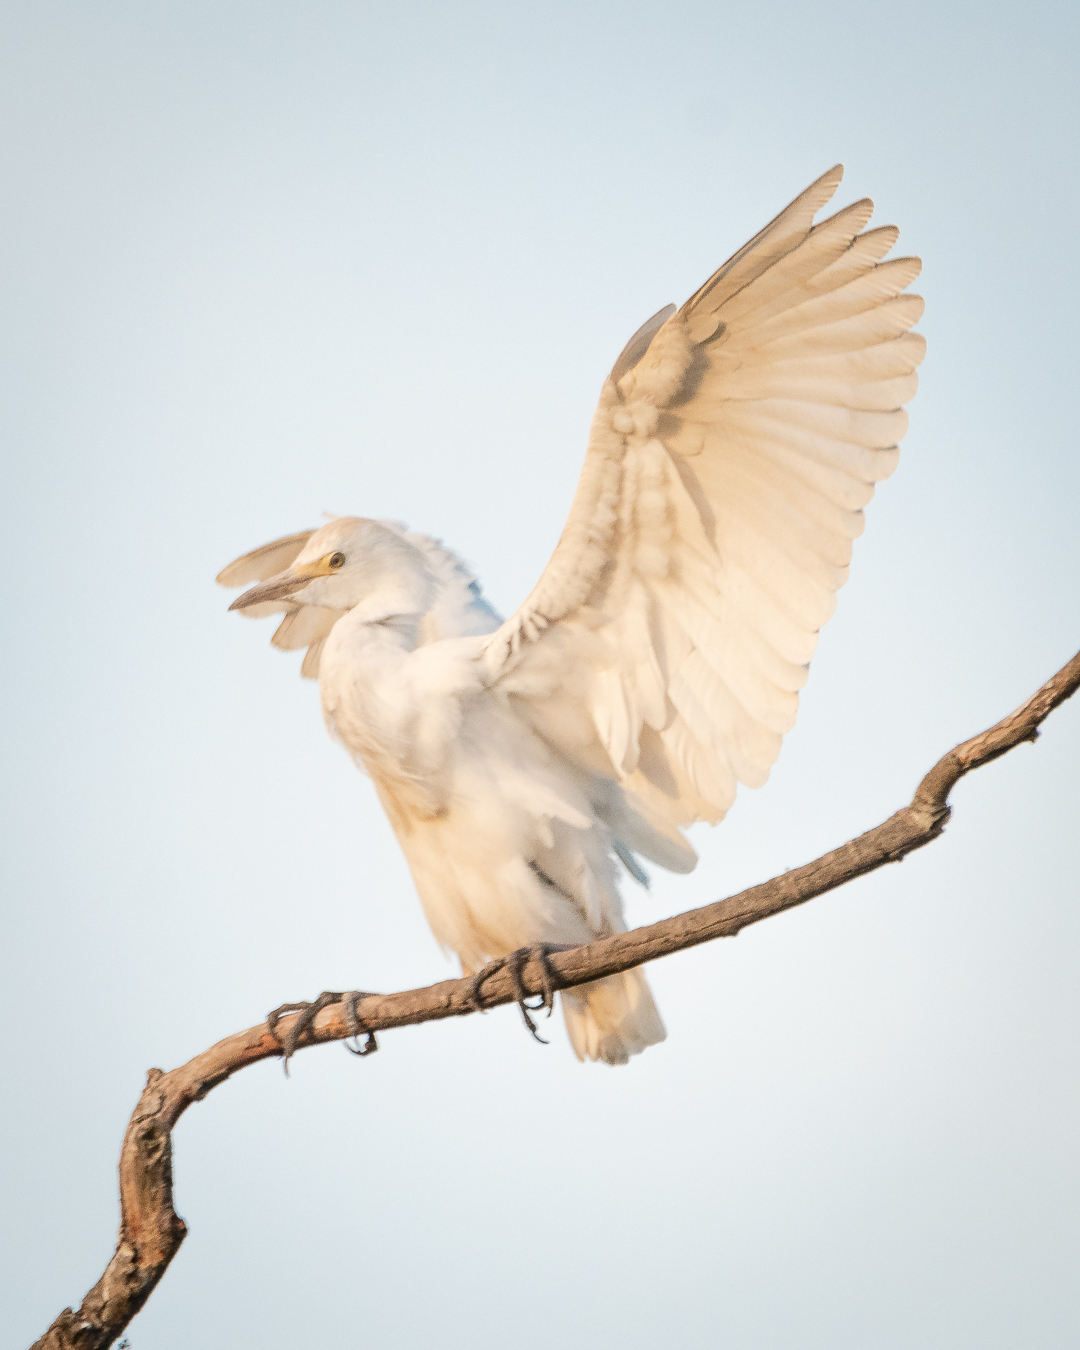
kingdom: Animalia
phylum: Chordata
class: Aves
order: Pelecaniformes
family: Ardeidae
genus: Bubulcus
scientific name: Bubulcus ibis
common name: Cattle egret
